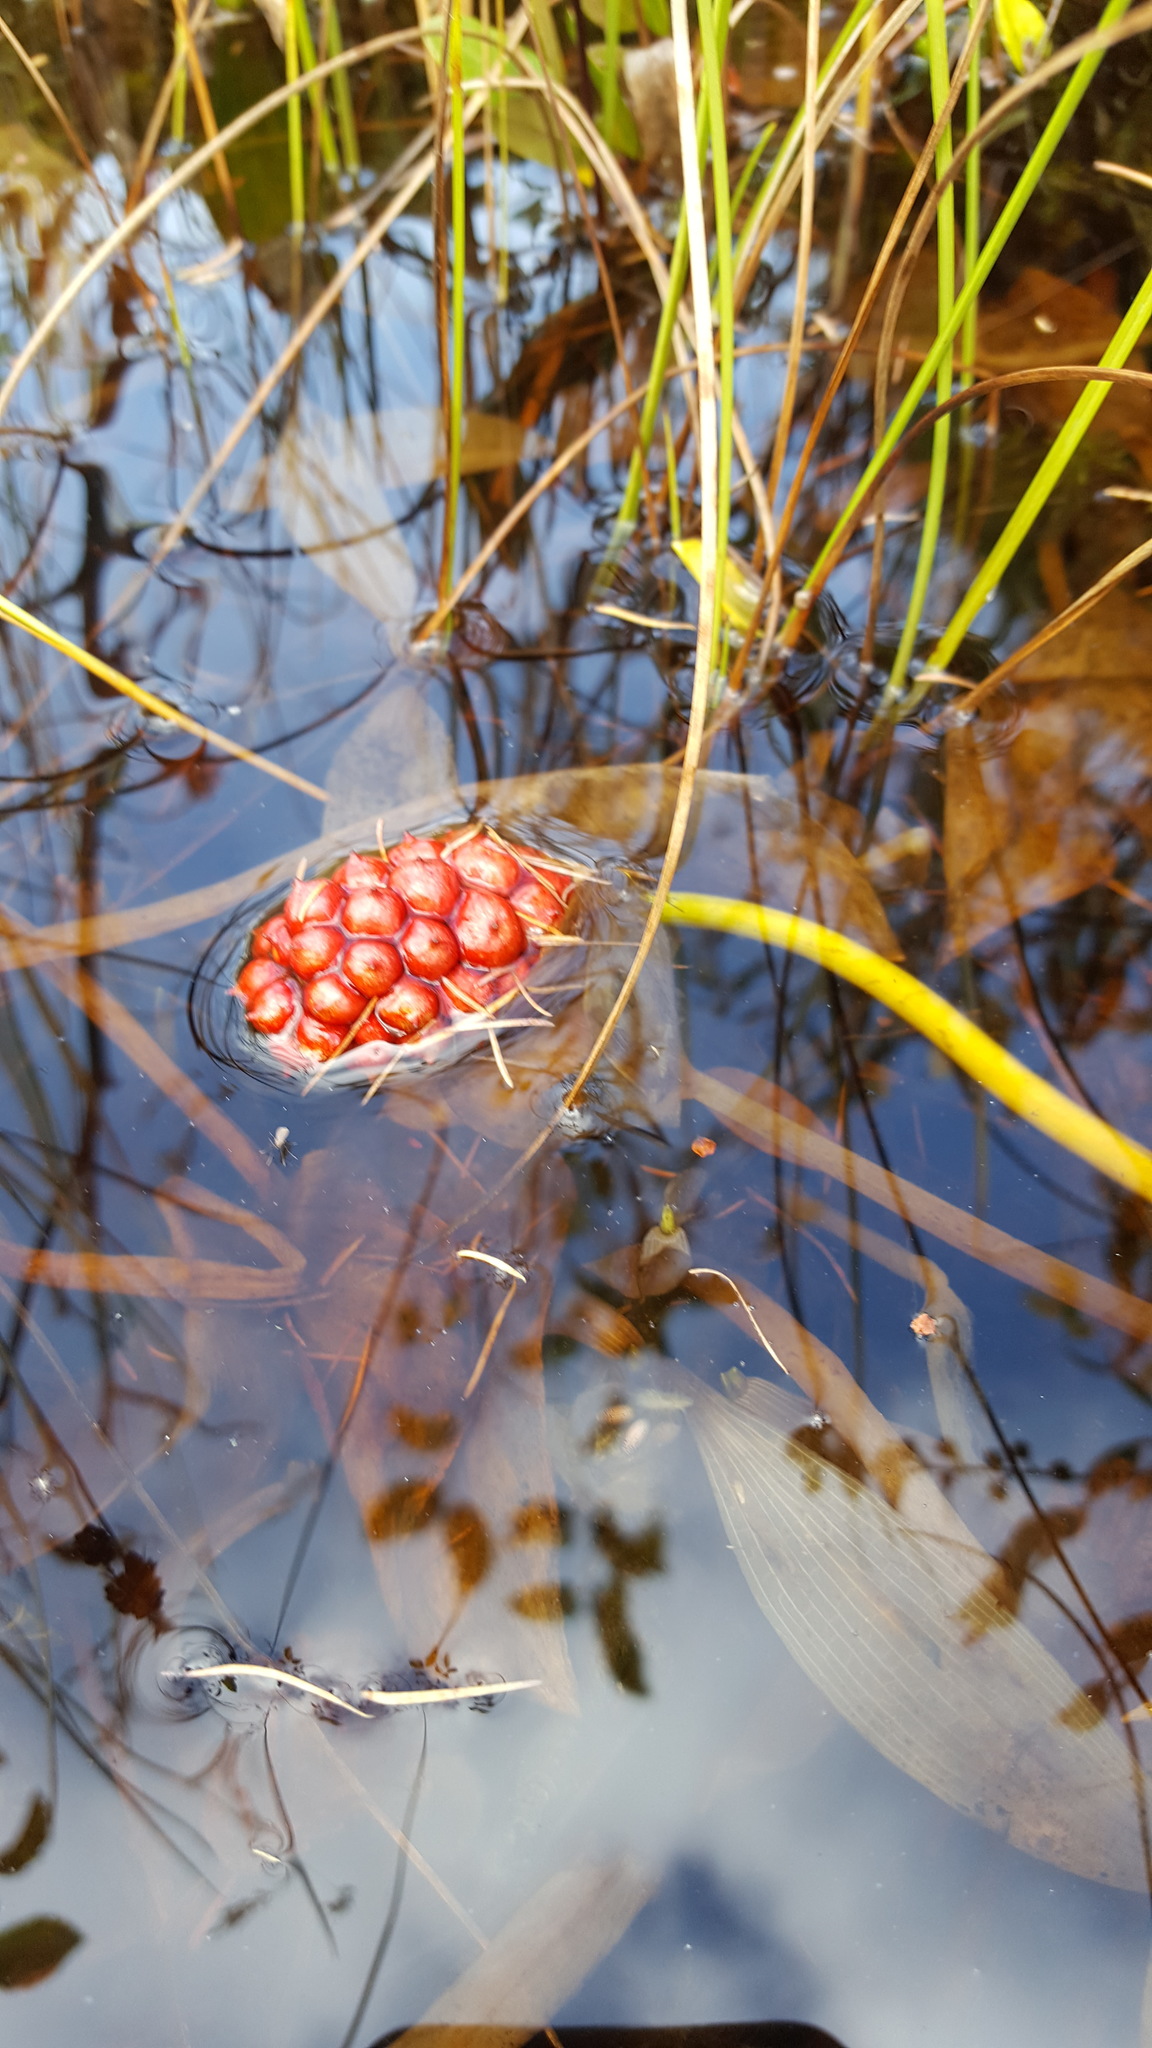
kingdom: Plantae
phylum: Tracheophyta
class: Liliopsida
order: Alismatales
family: Araceae
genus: Calla
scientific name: Calla palustris
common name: Bog arum
